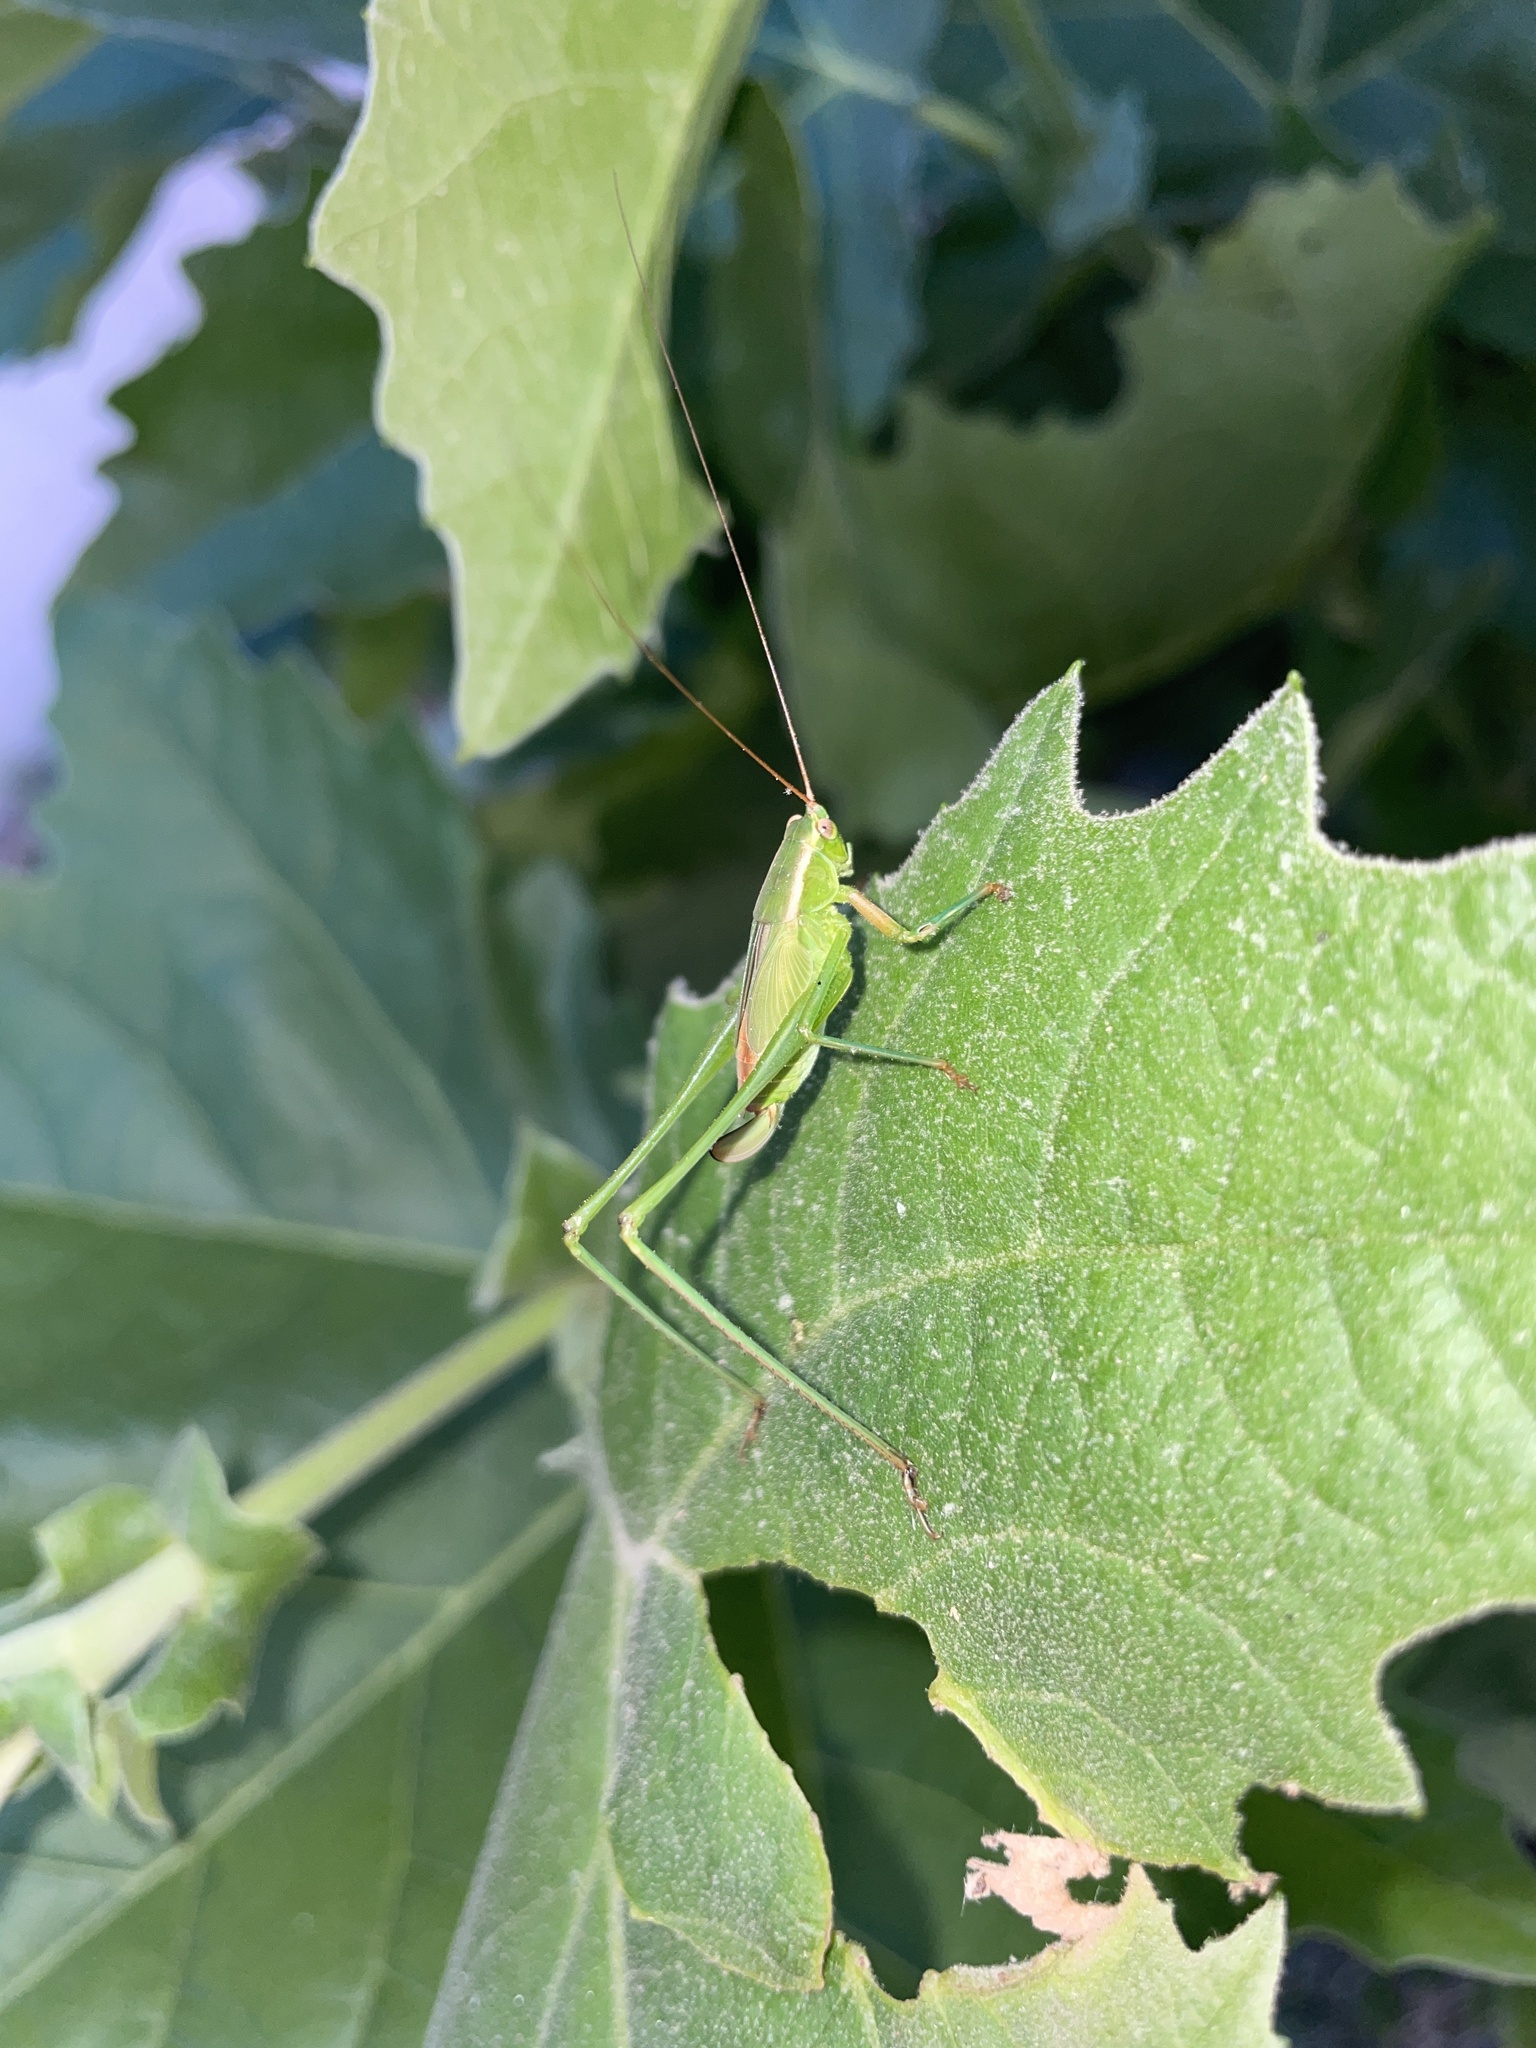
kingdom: Animalia
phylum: Arthropoda
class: Insecta
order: Orthoptera
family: Tettigoniidae
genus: Scudderia
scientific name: Scudderia
